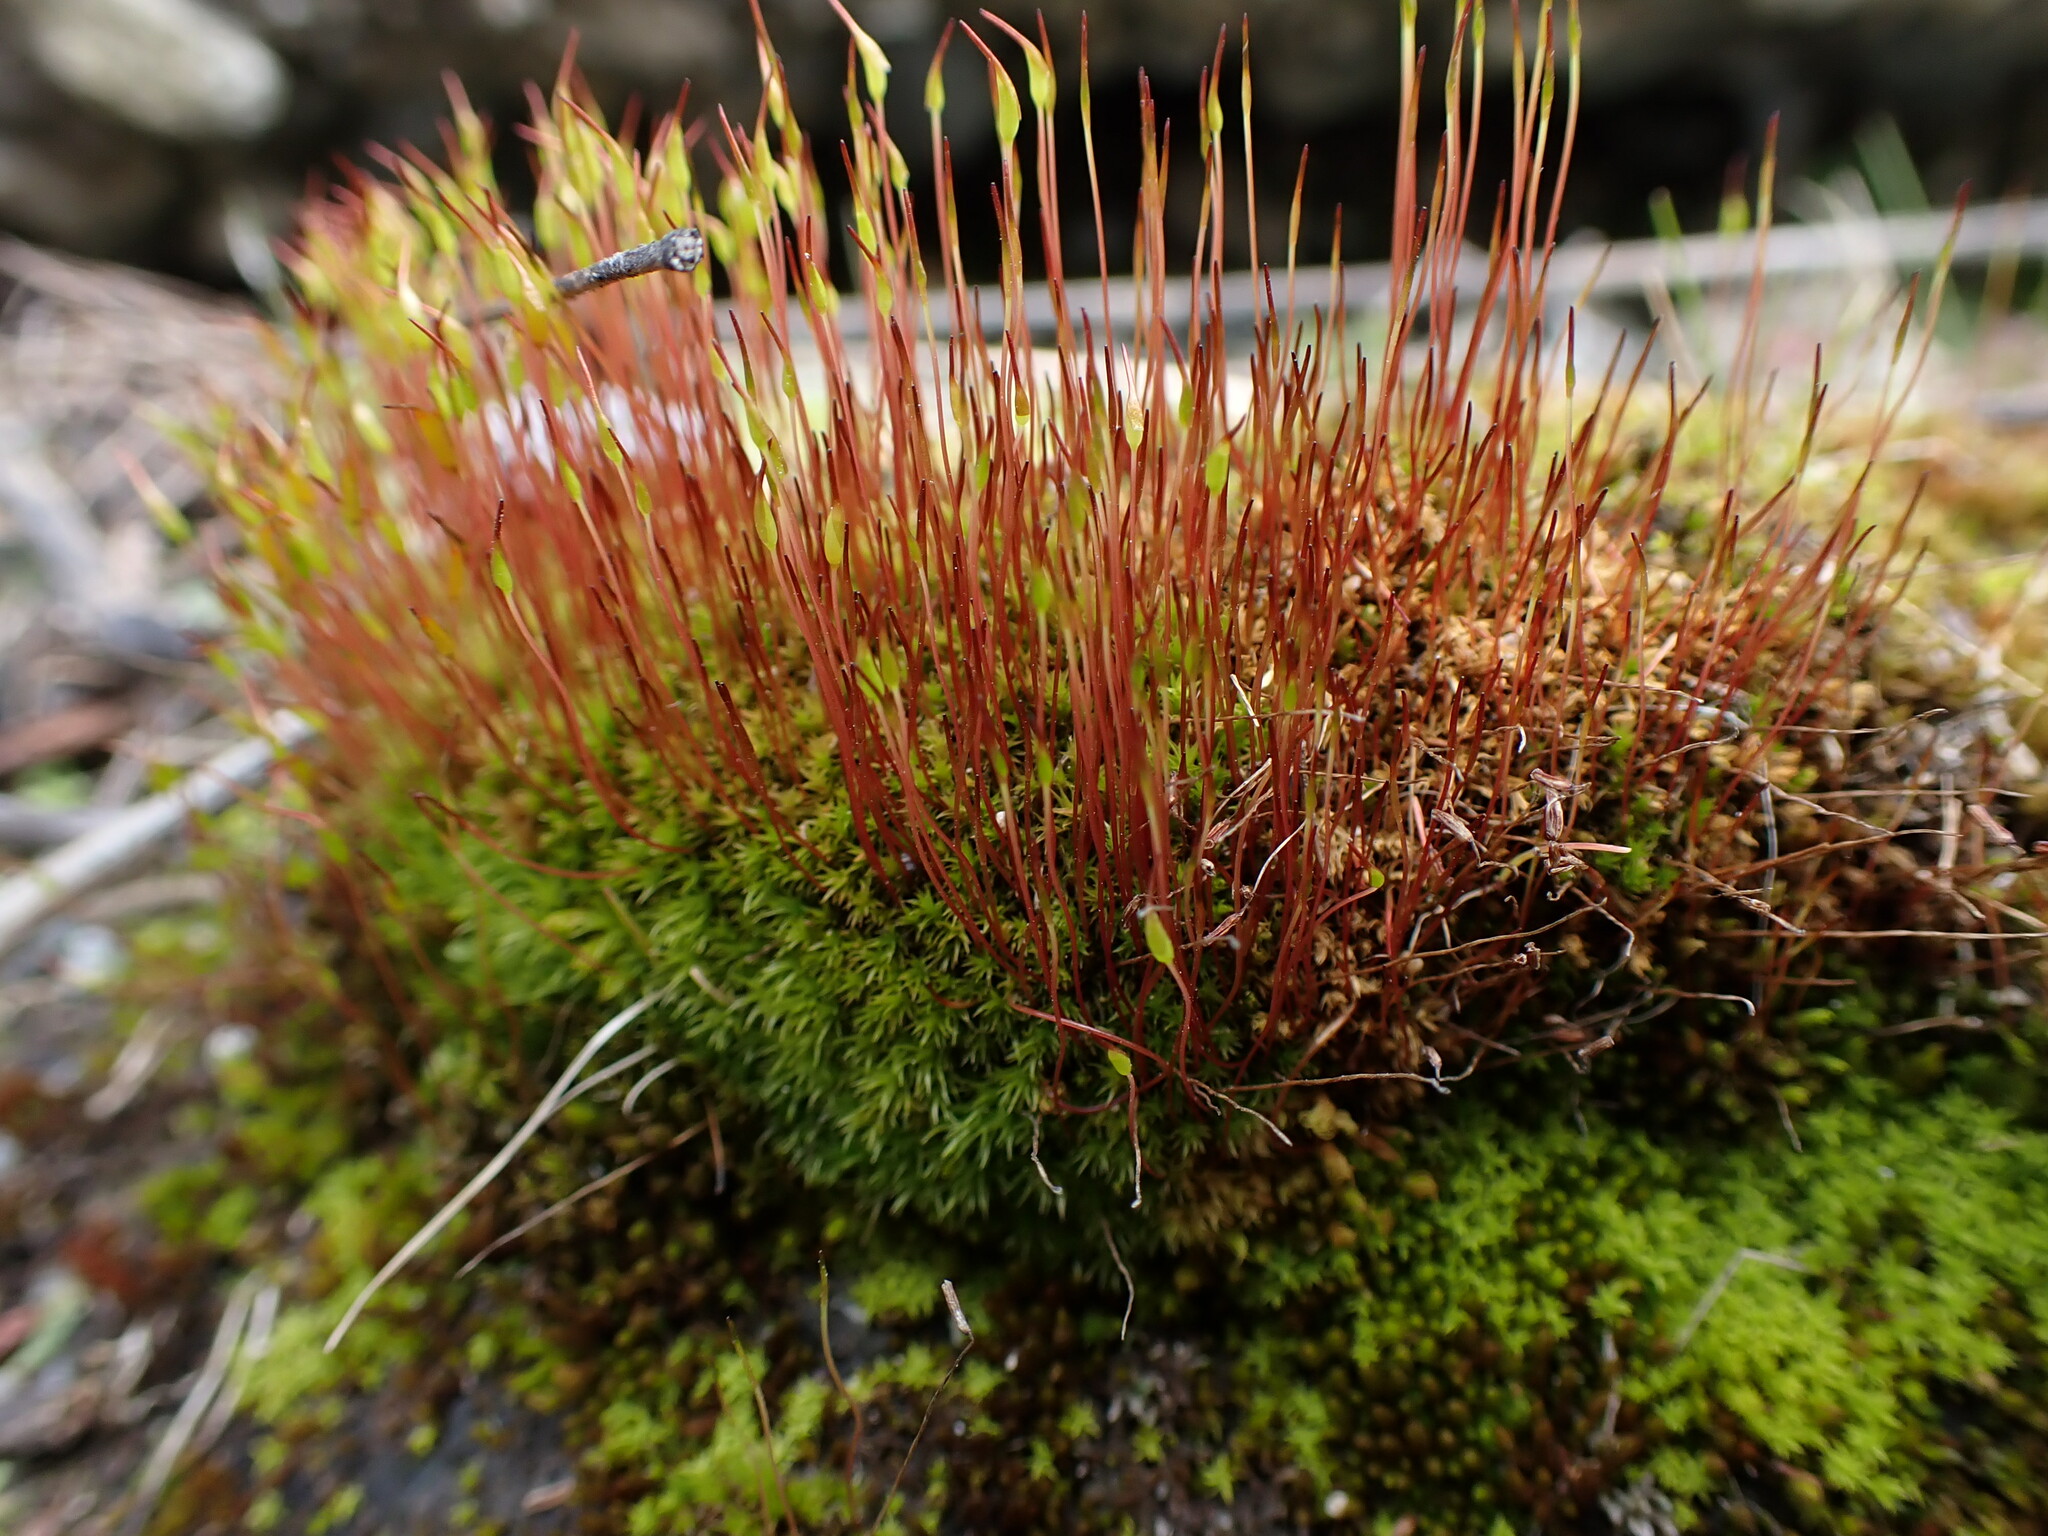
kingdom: Plantae
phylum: Bryophyta
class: Bryopsida
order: Dicranales
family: Ditrichaceae
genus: Ceratodon
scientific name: Ceratodon purpureus
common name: Redshank
